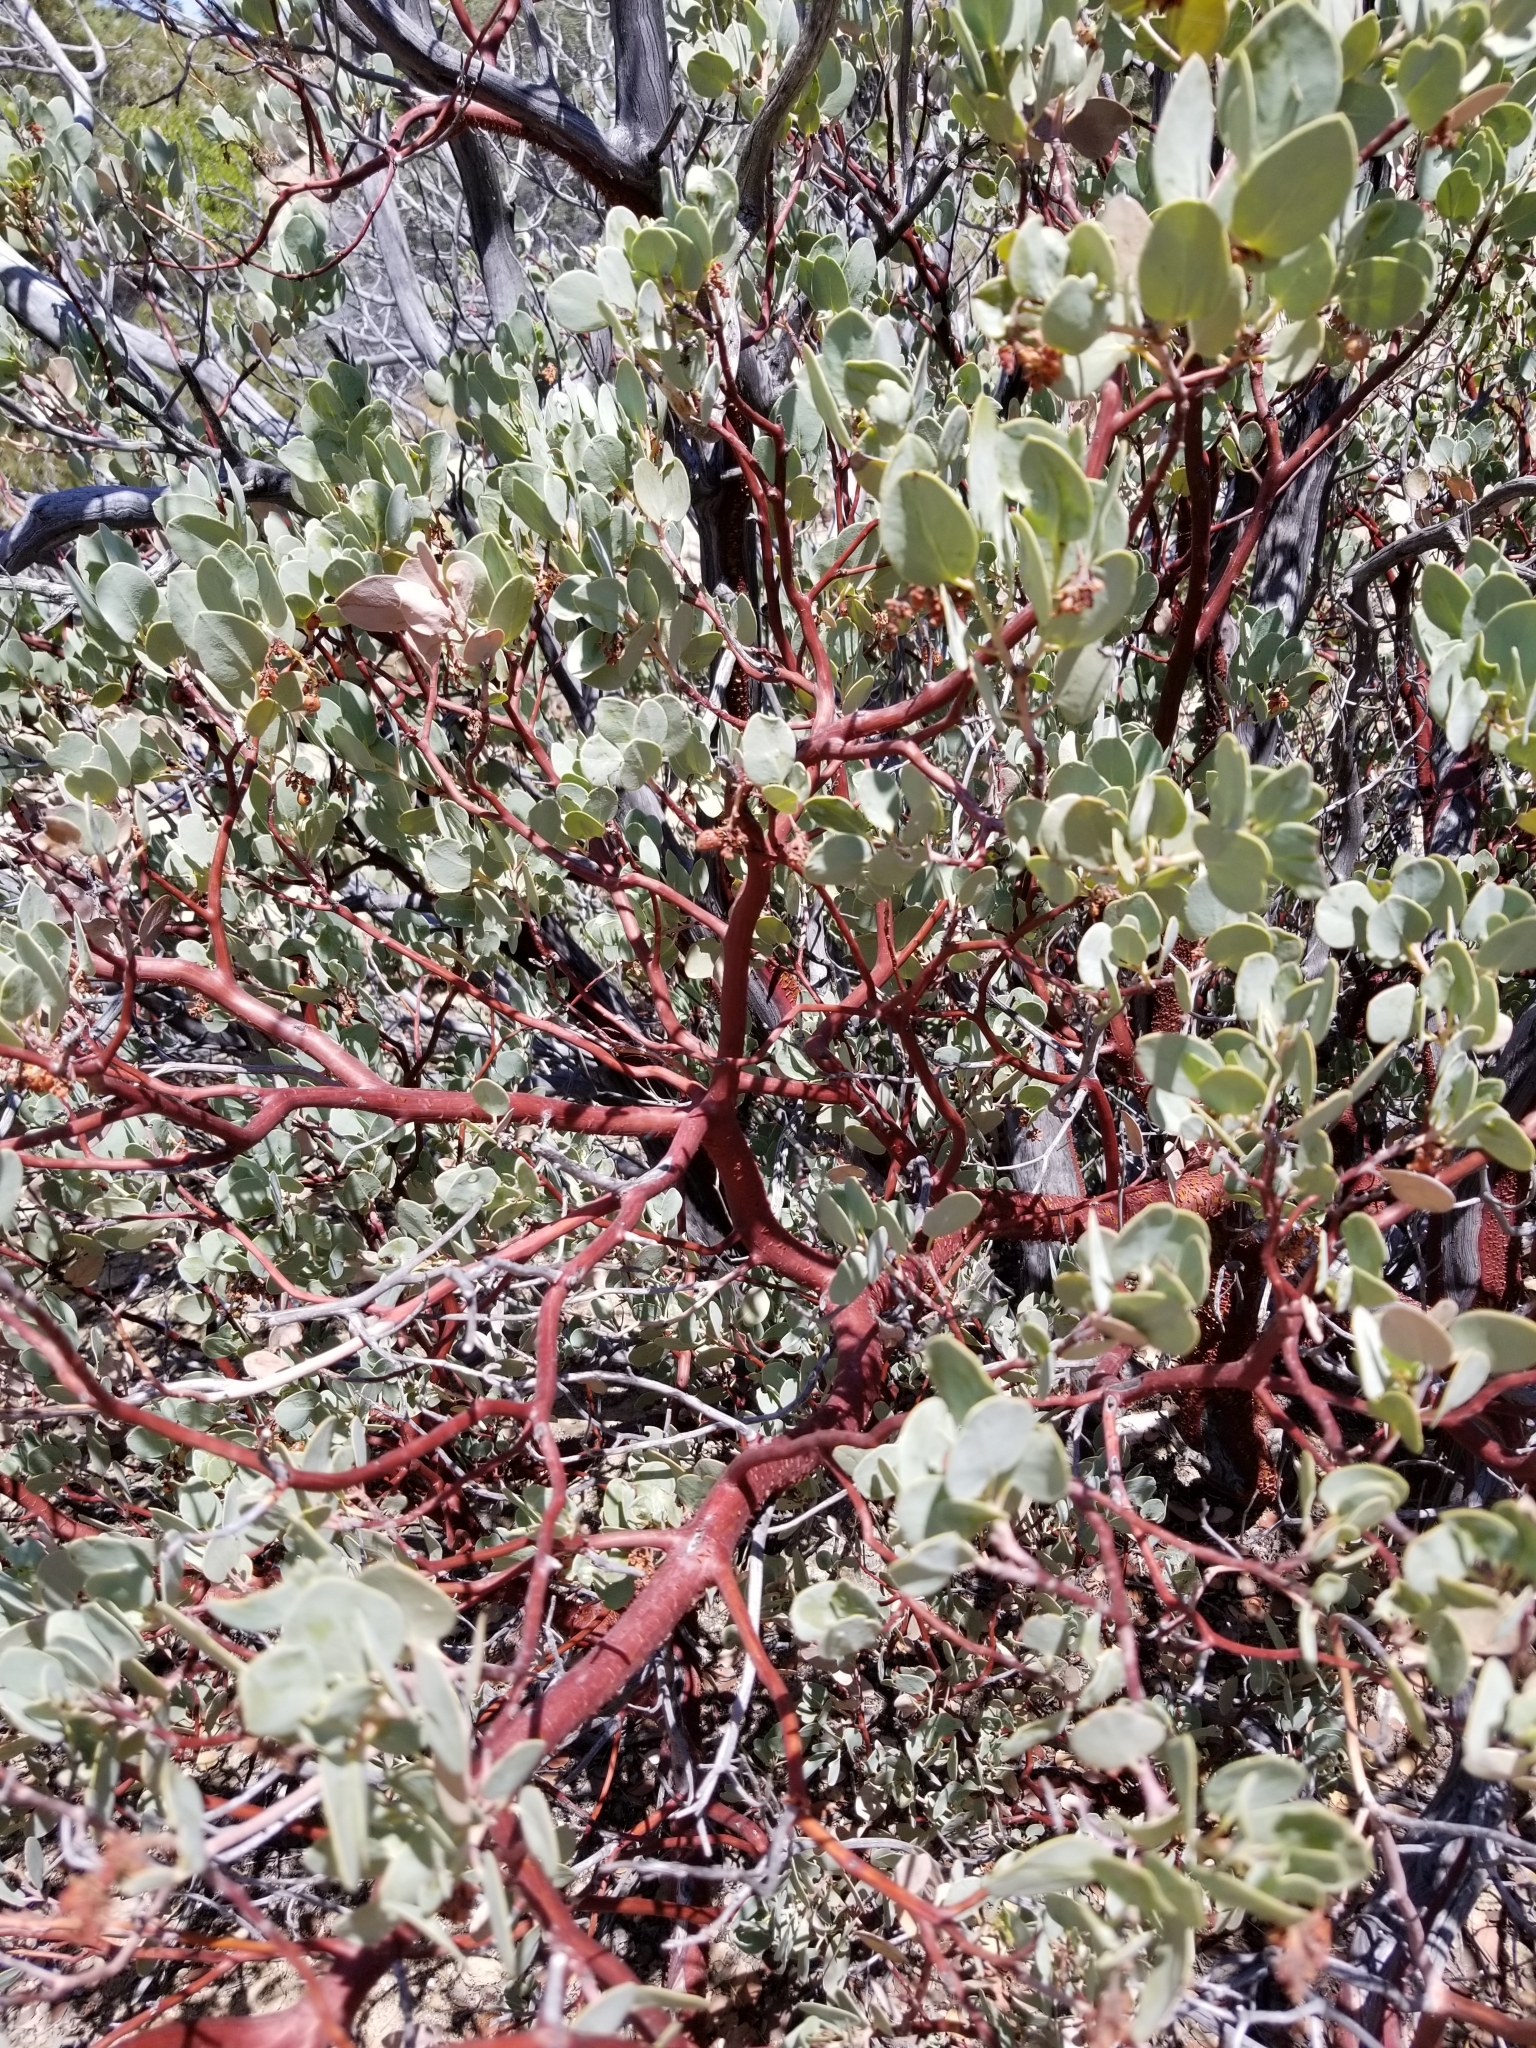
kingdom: Plantae
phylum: Tracheophyta
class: Magnoliopsida
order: Ericales
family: Ericaceae
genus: Arctostaphylos
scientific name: Arctostaphylos glauca
